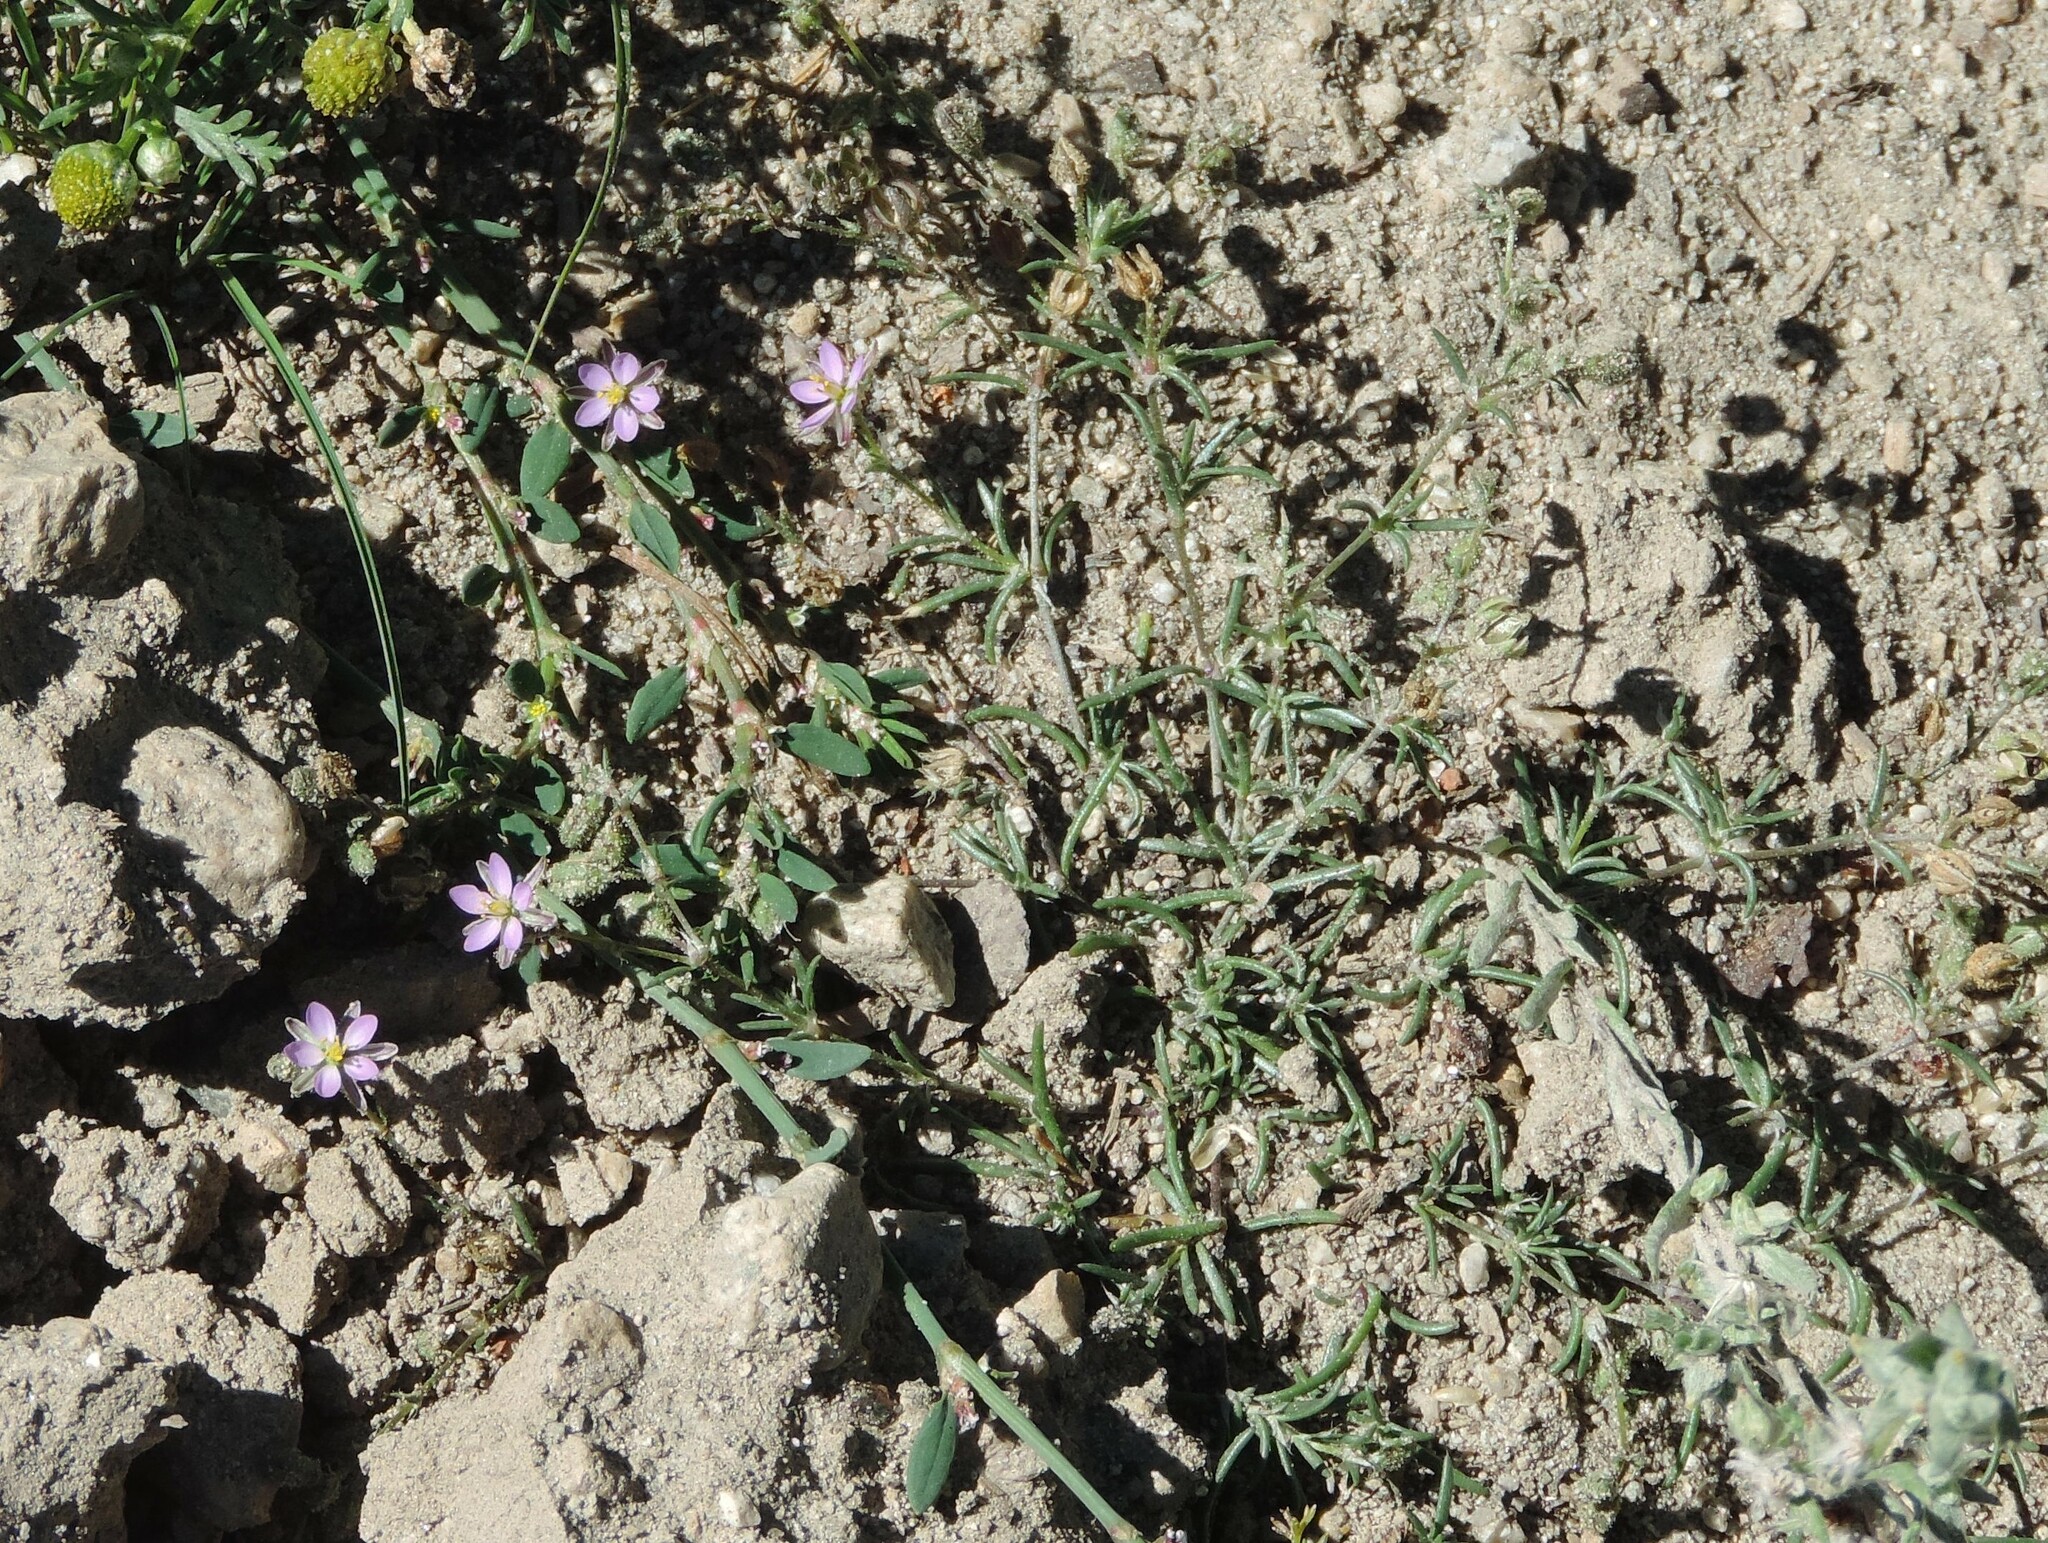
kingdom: Plantae
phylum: Tracheophyta
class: Magnoliopsida
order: Caryophyllales
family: Caryophyllaceae
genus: Spergularia
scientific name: Spergularia rubra
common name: Red sand-spurrey
